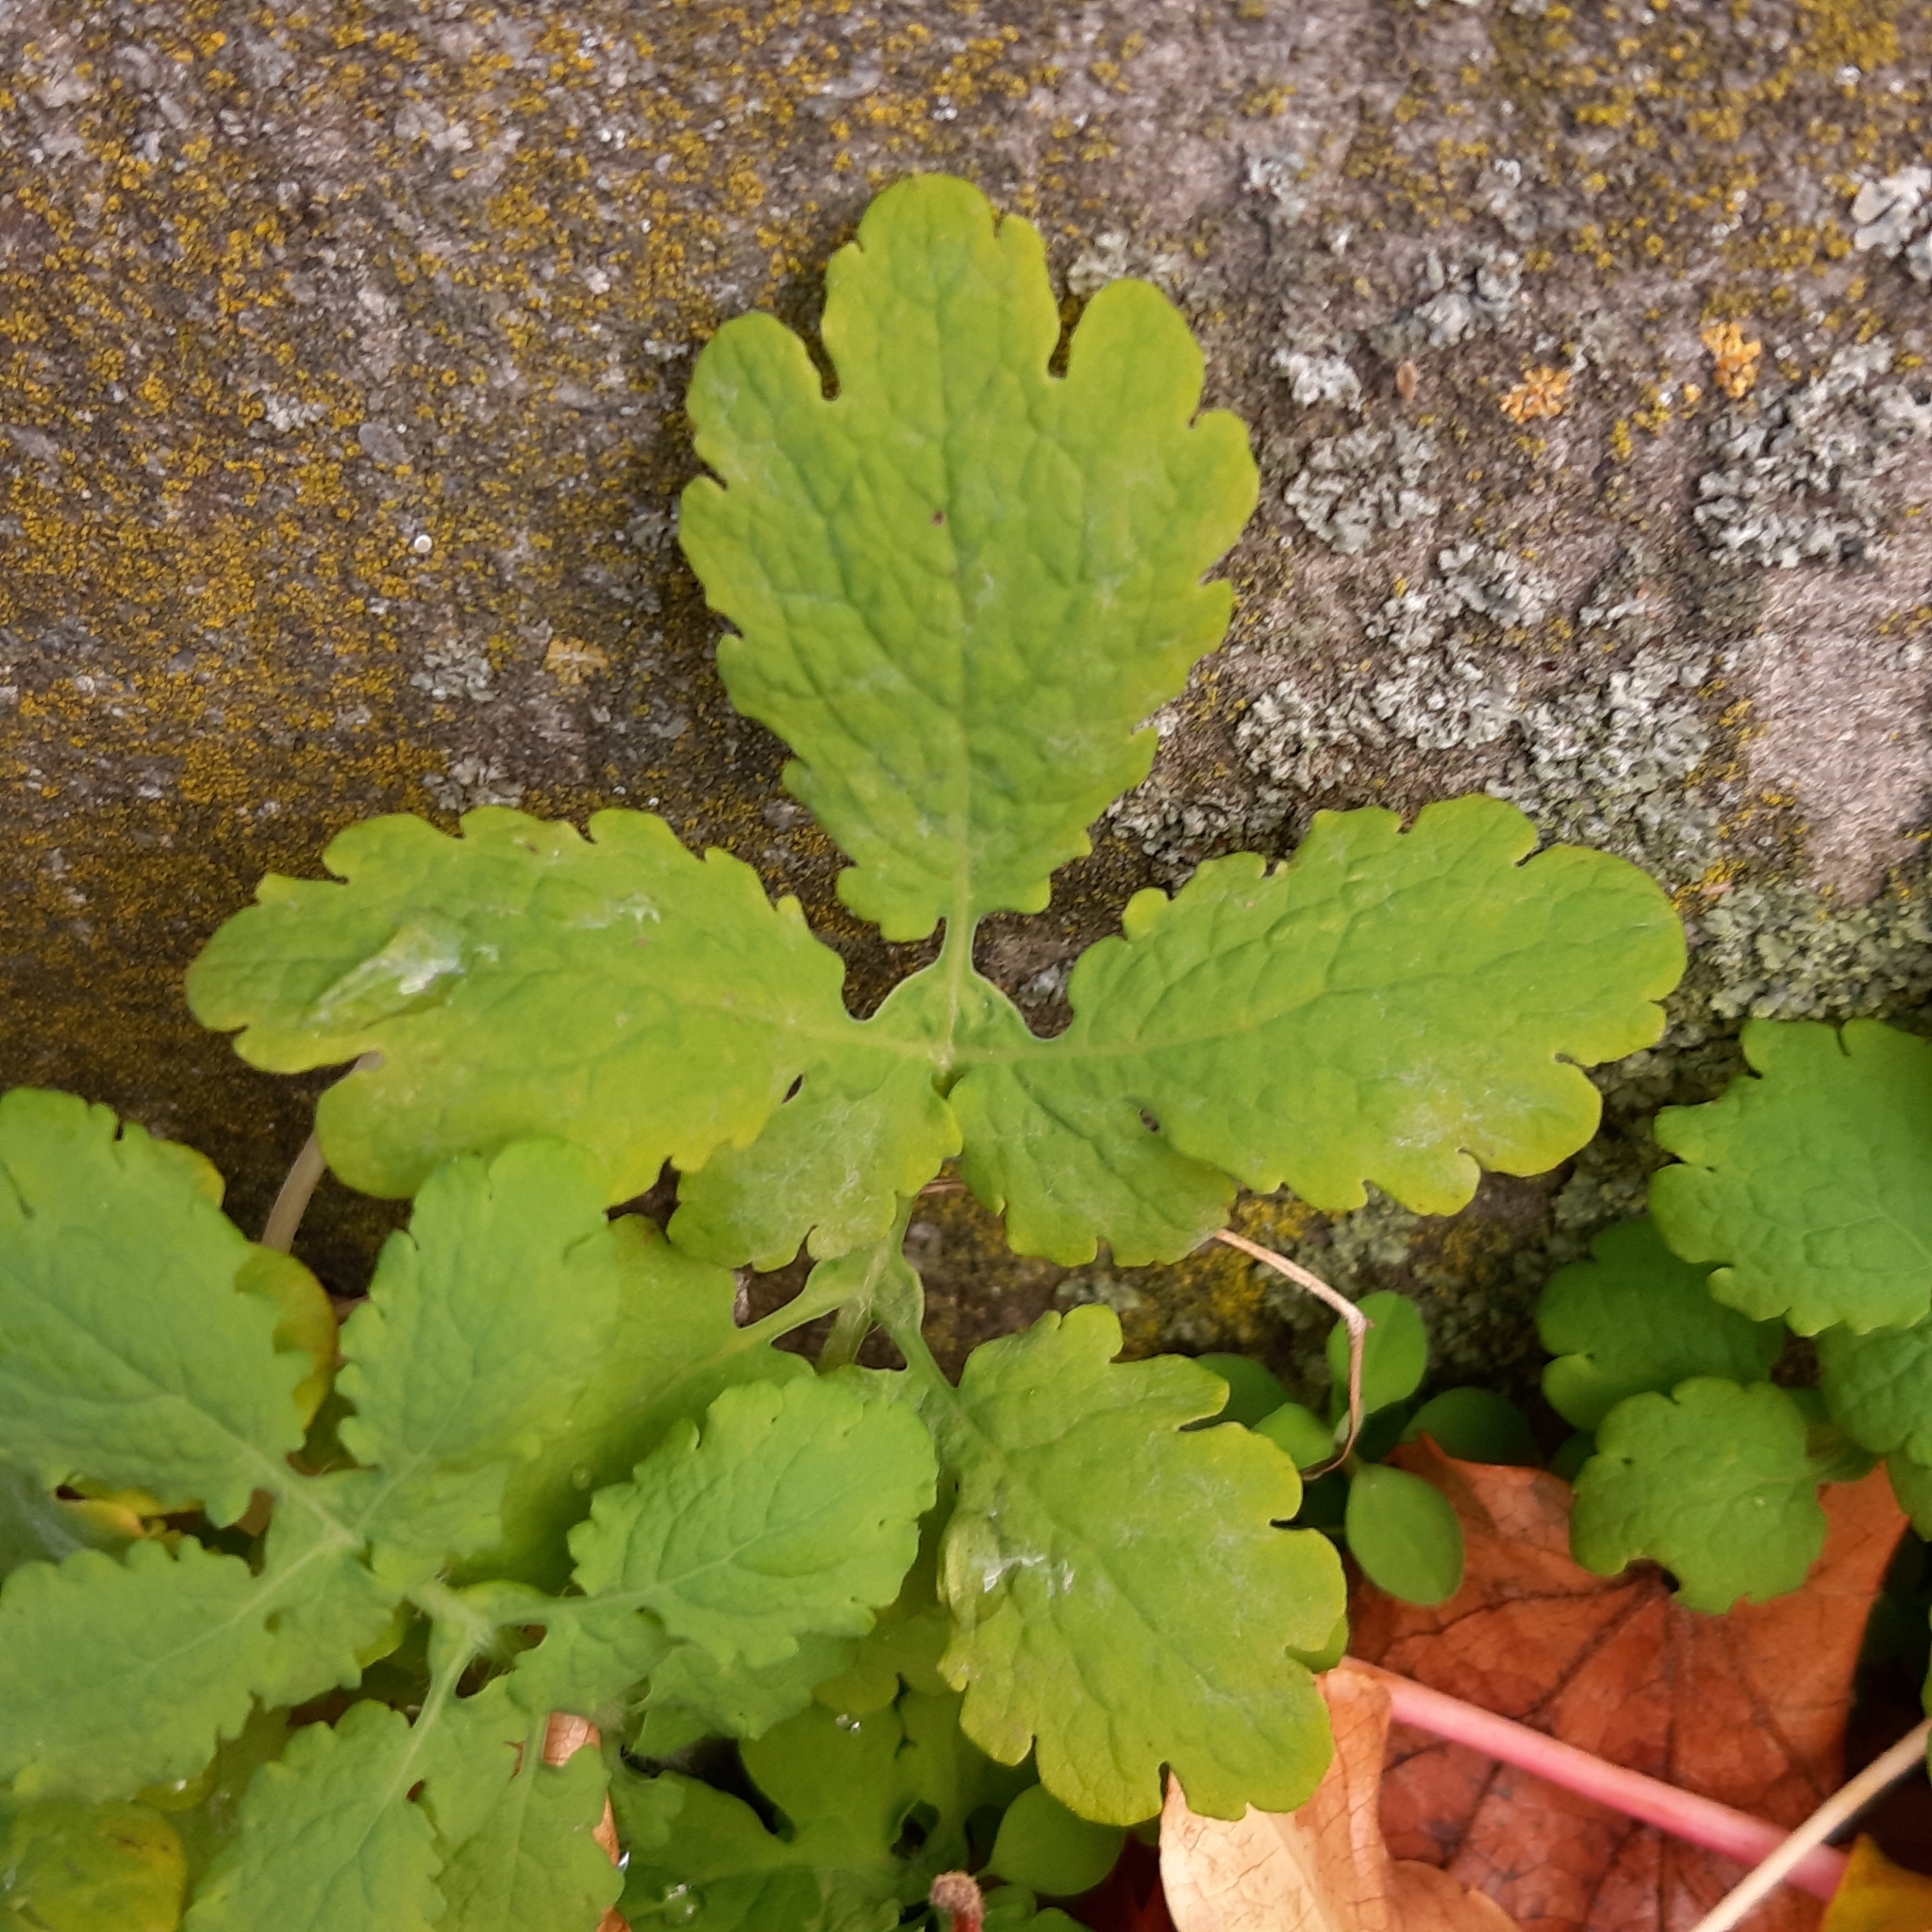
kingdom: Plantae
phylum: Tracheophyta
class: Magnoliopsida
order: Ranunculales
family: Papaveraceae
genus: Chelidonium
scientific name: Chelidonium majus
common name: Greater celandine
